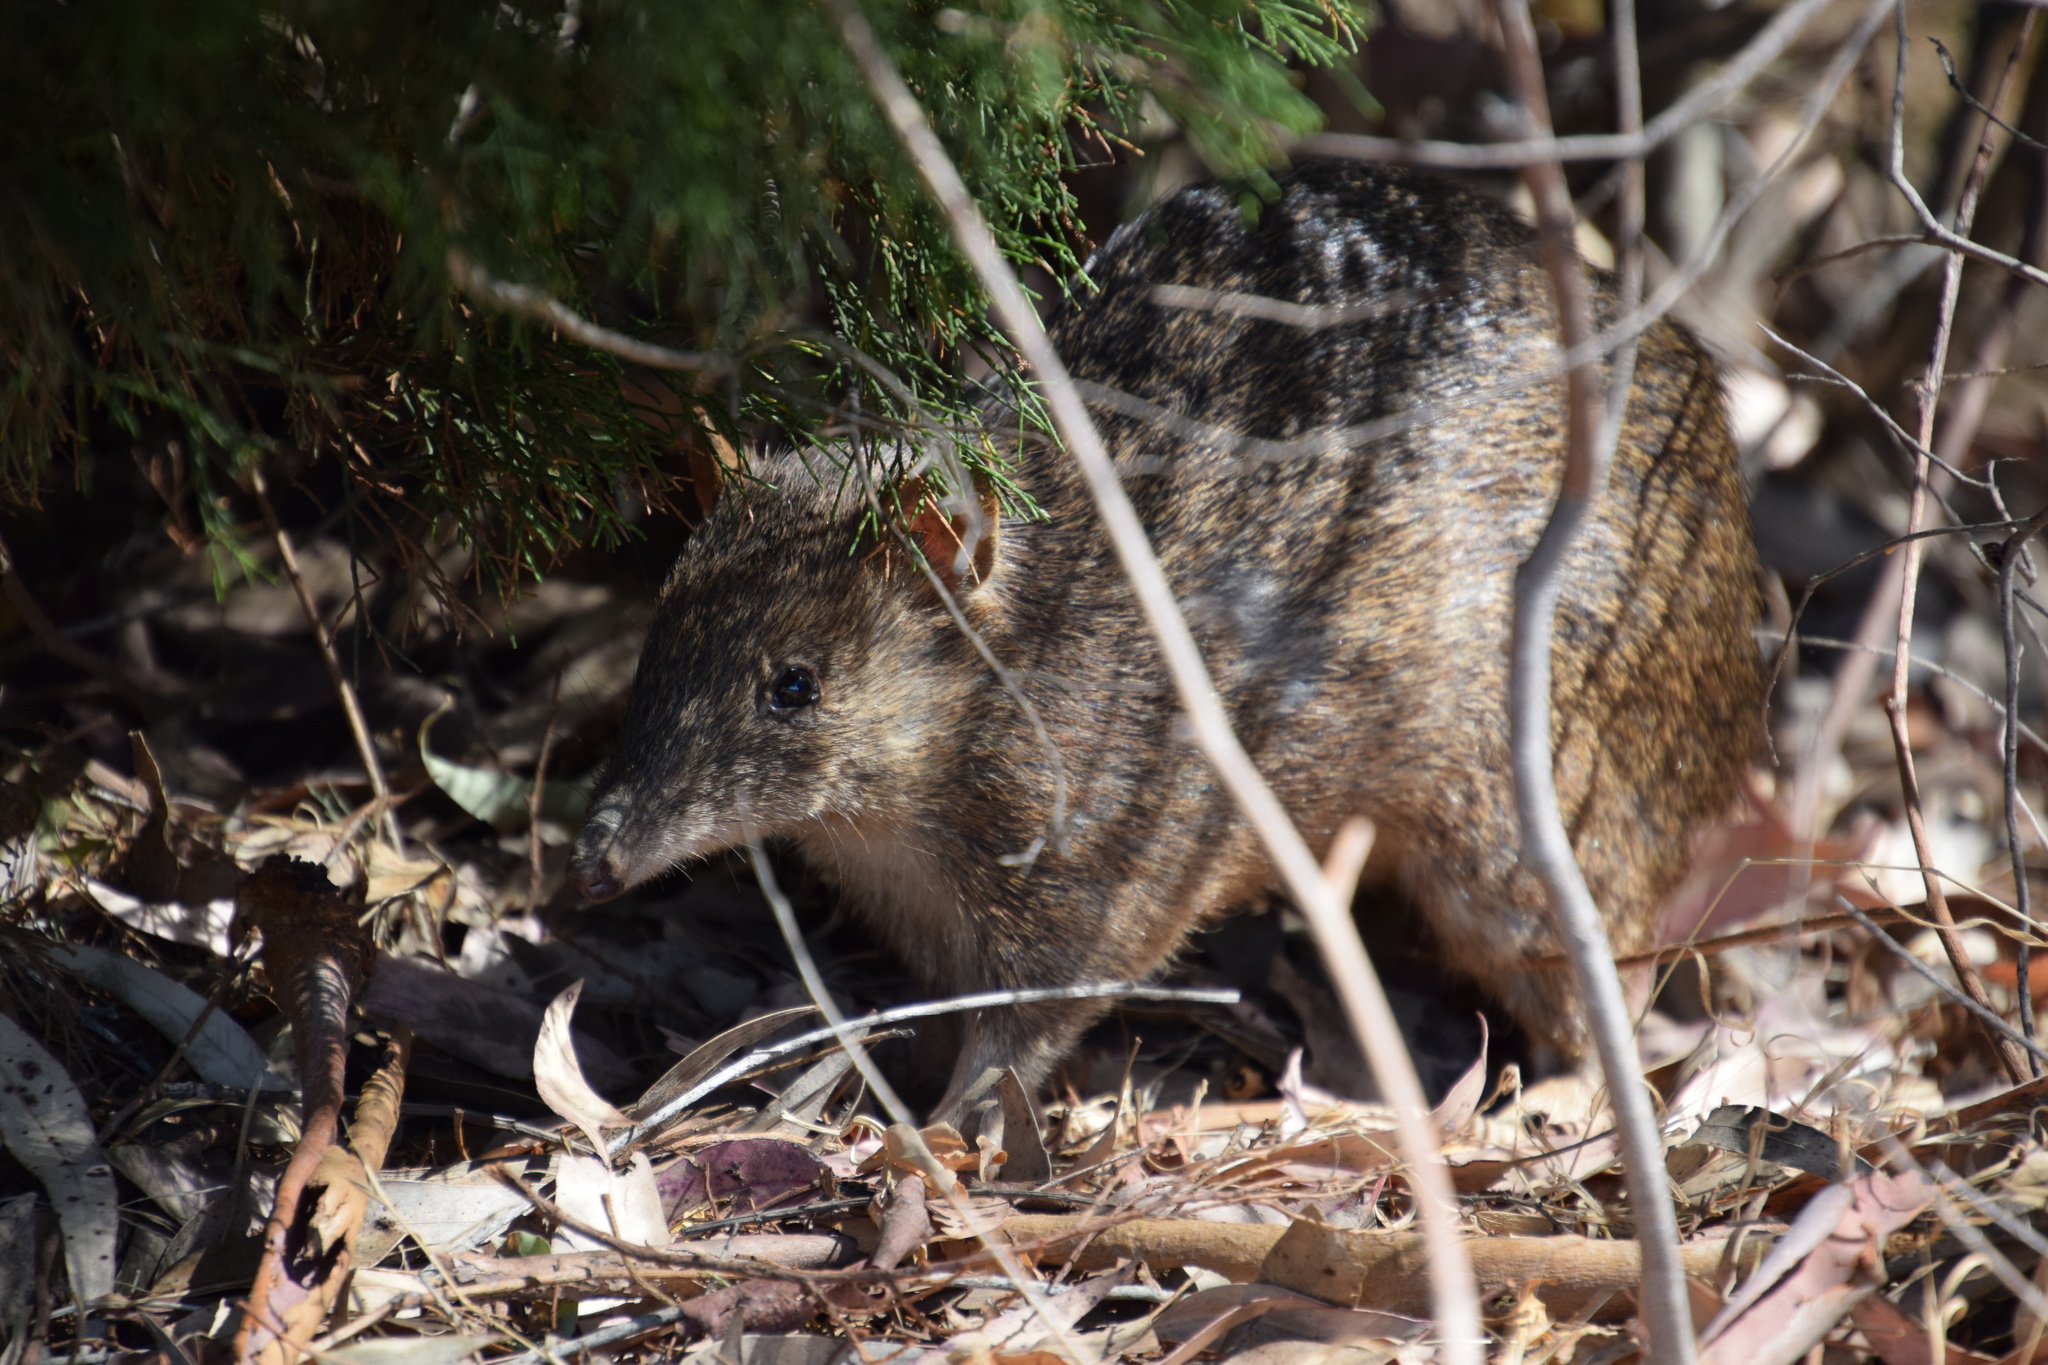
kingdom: Animalia
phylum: Chordata
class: Mammalia
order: Peramelemorphia
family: Peramelidae
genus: Isoodon
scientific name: Isoodon fusciventer
